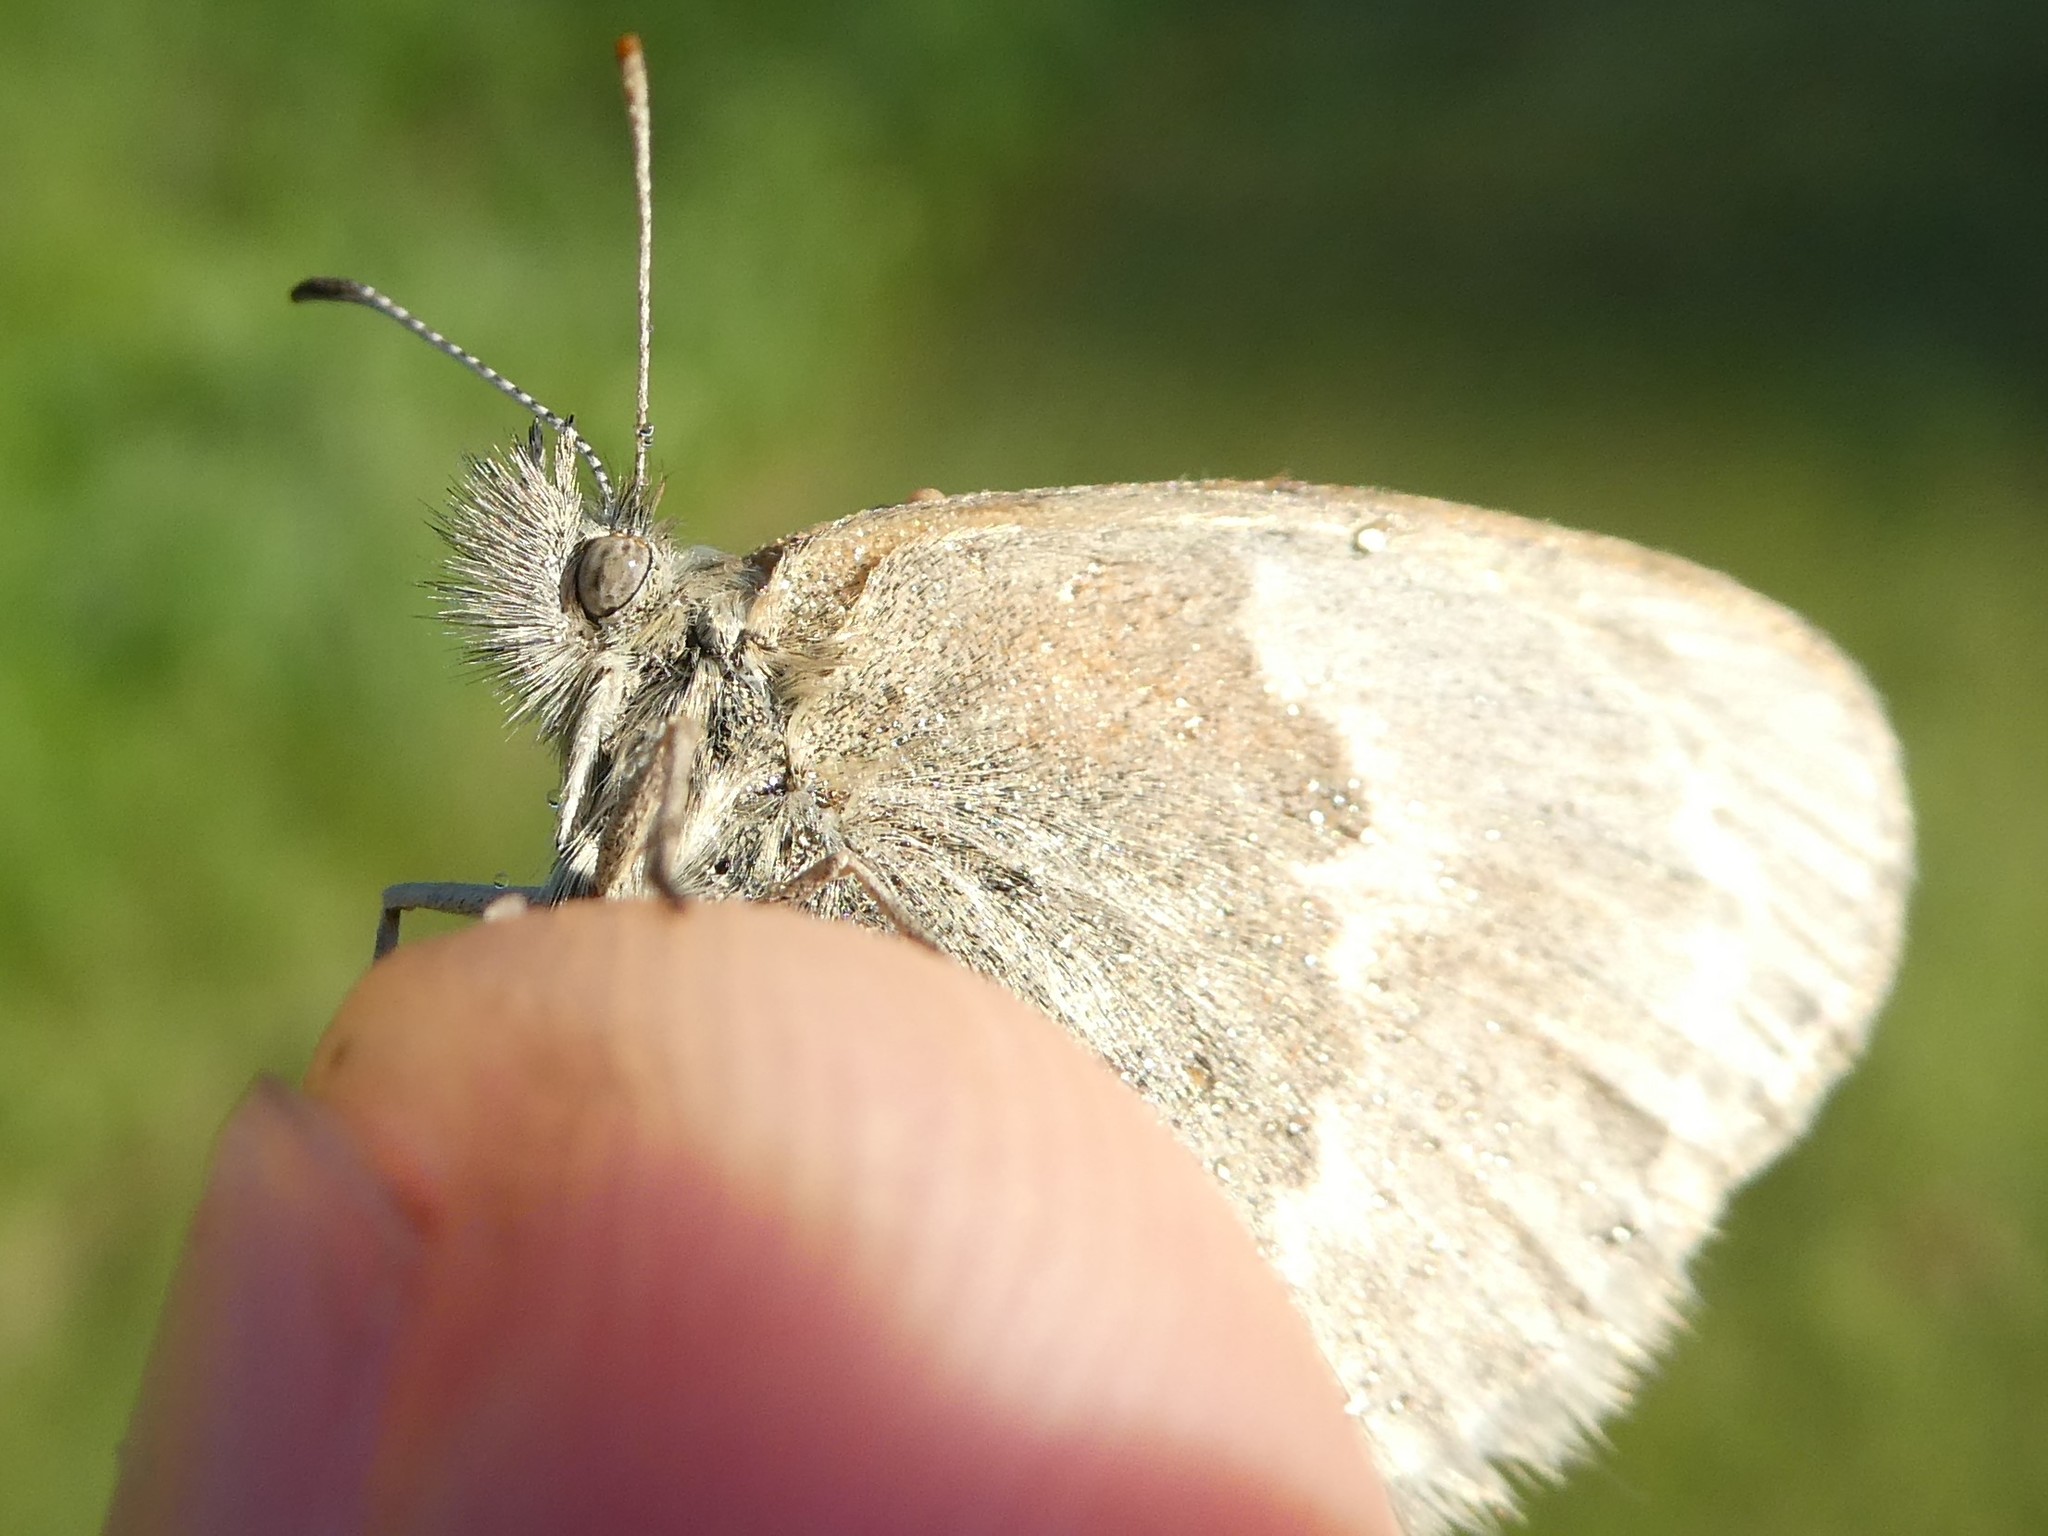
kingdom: Animalia
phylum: Arthropoda
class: Insecta
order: Lepidoptera
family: Nymphalidae
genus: Coenonympha
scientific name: Coenonympha california
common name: Common ringlet
